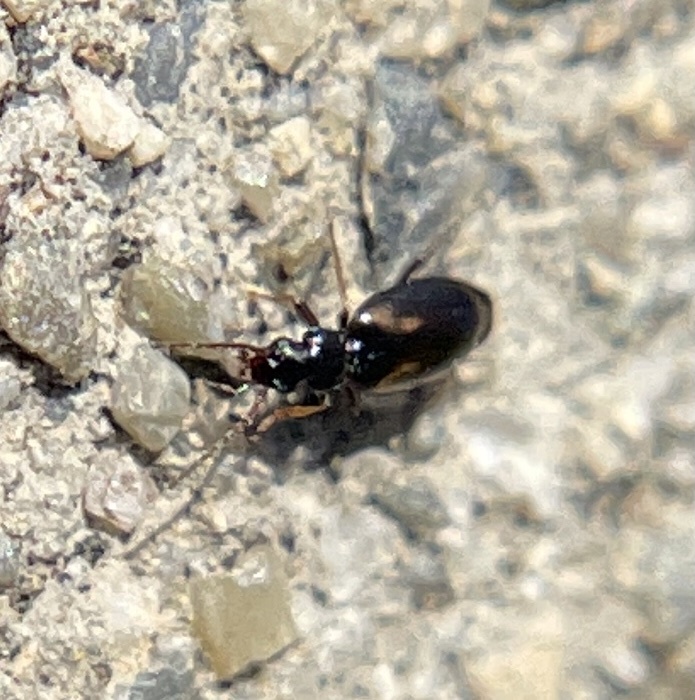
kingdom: Animalia
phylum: Arthropoda
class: Insecta
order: Coleoptera
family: Carabidae
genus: Axinopalpus
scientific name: Axinopalpus biplagiatus
